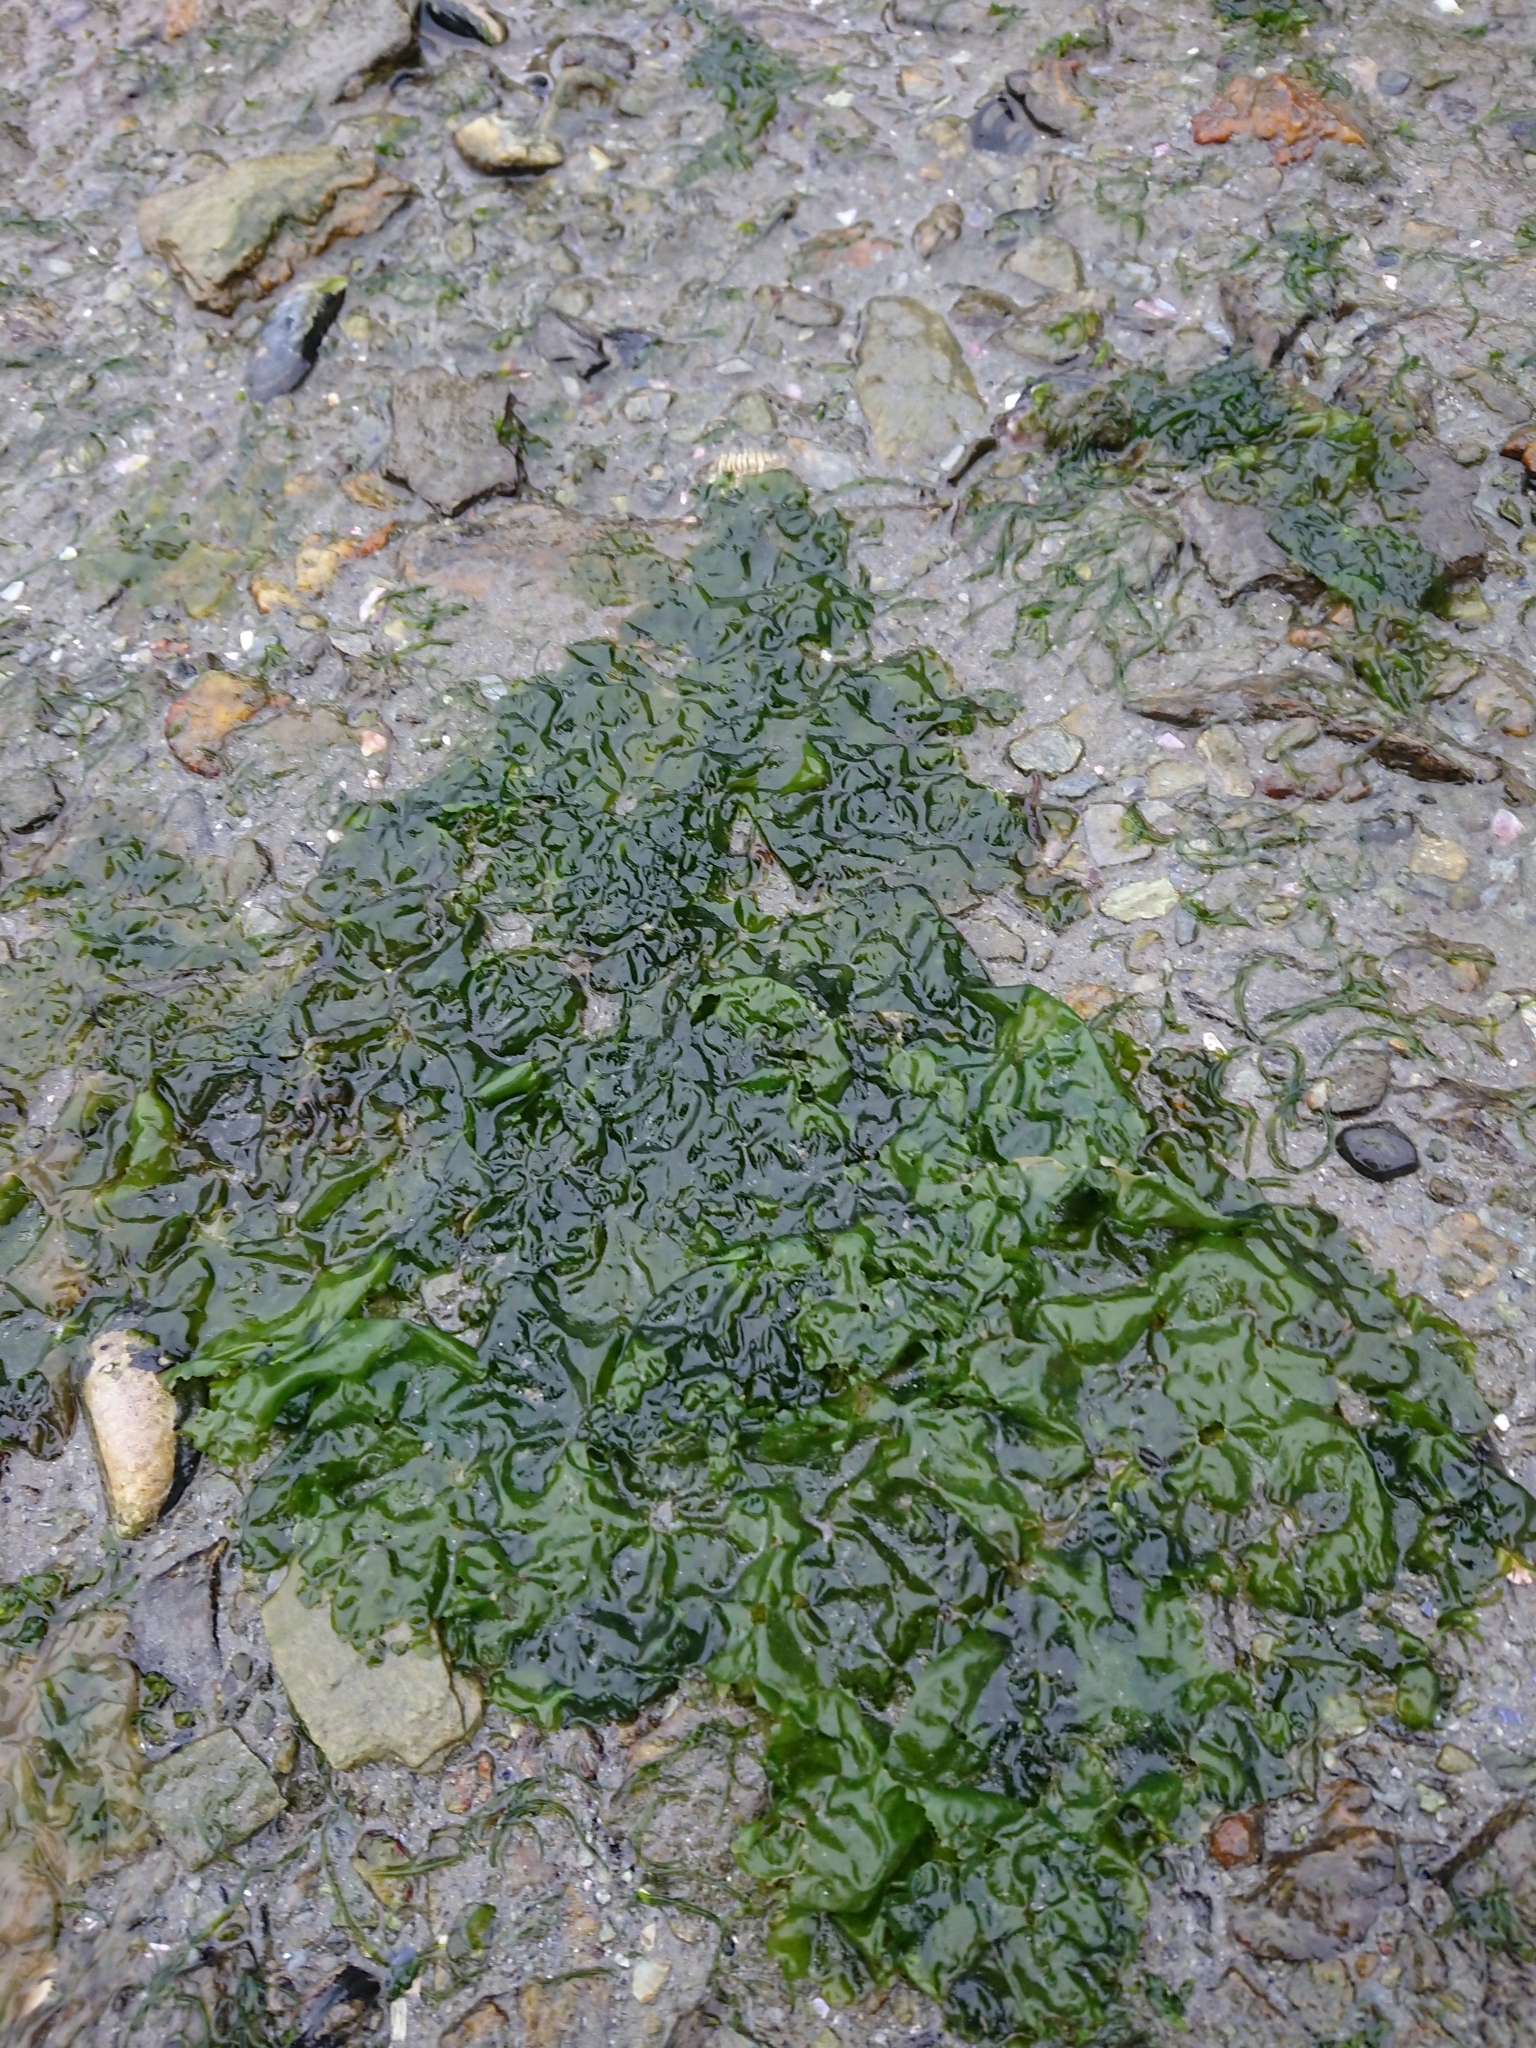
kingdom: Plantae
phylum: Chlorophyta
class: Ulvophyceae
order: Ulvales
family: Ulvaceae
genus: Ulva
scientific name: Ulva lactuca
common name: Sea lettuce
